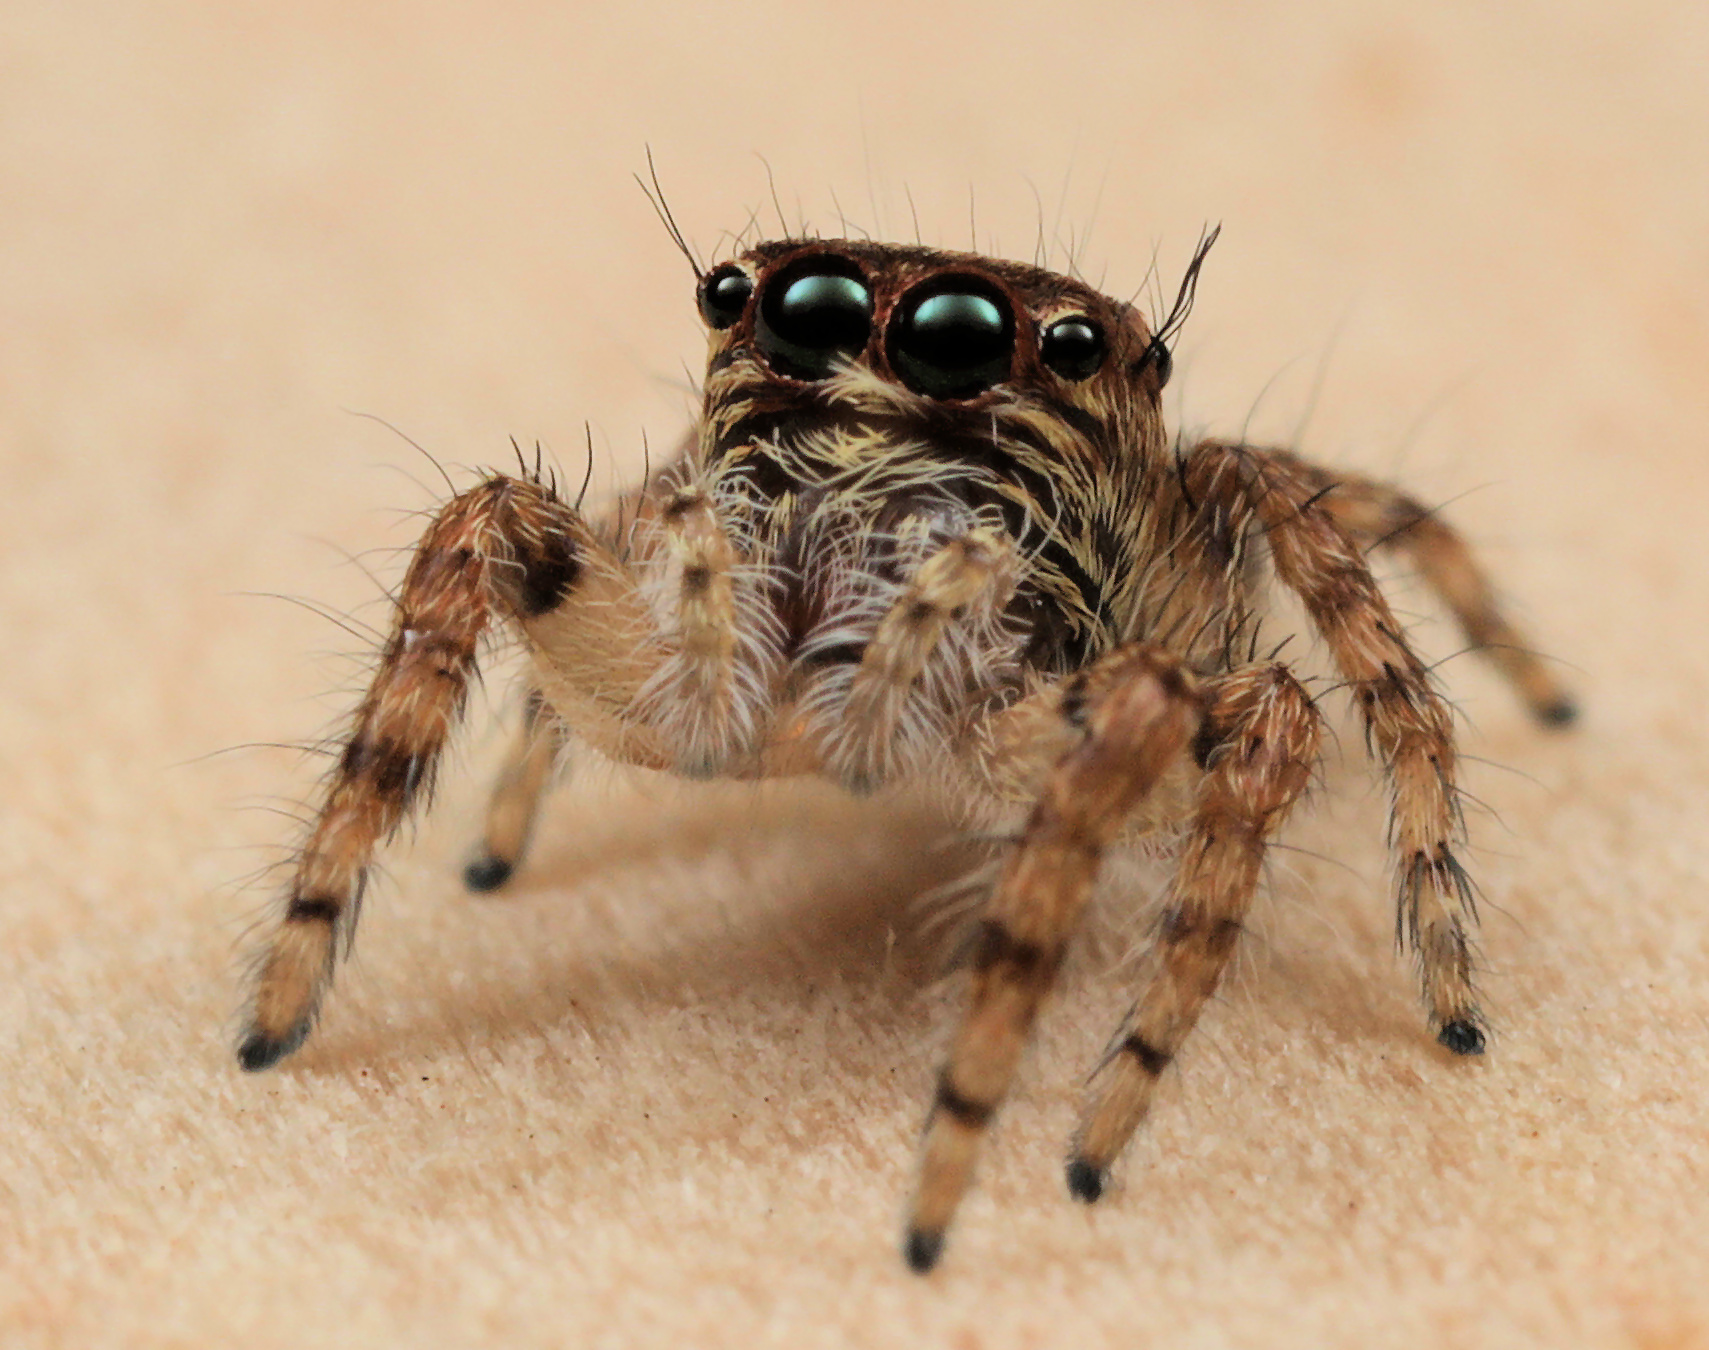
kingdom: Animalia
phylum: Arthropoda
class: Arachnida
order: Araneae
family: Salticidae
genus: Hyllus
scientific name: Hyllus treleaveni
